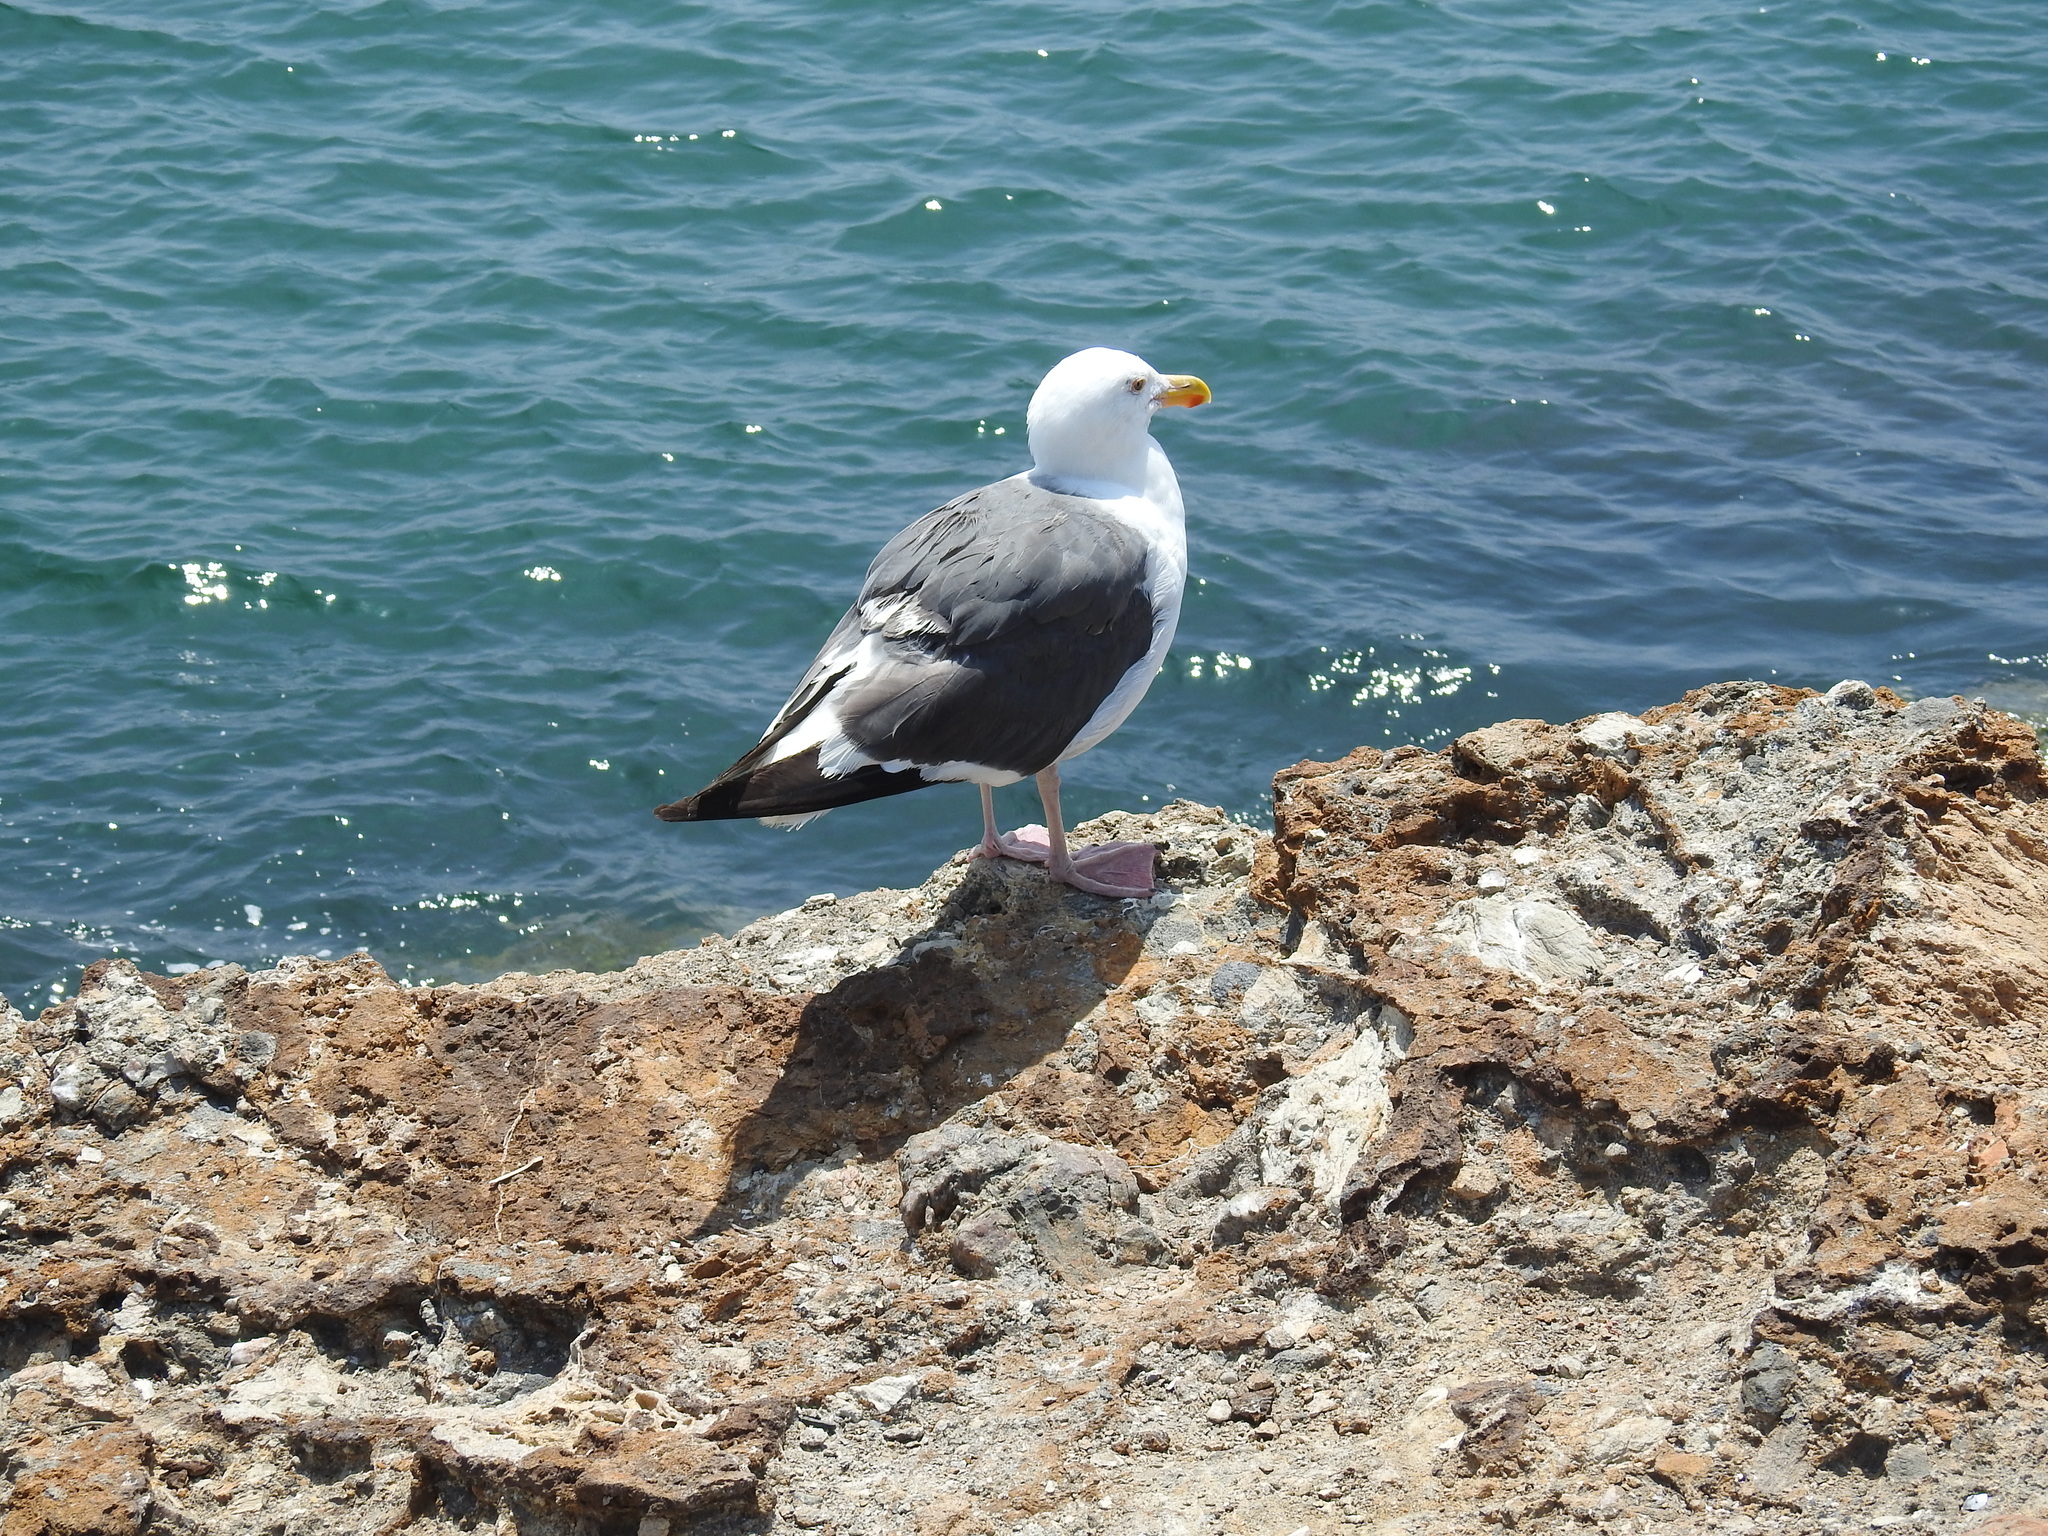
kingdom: Animalia
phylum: Chordata
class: Aves
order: Charadriiformes
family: Laridae
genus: Larus
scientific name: Larus occidentalis
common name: Western gull
